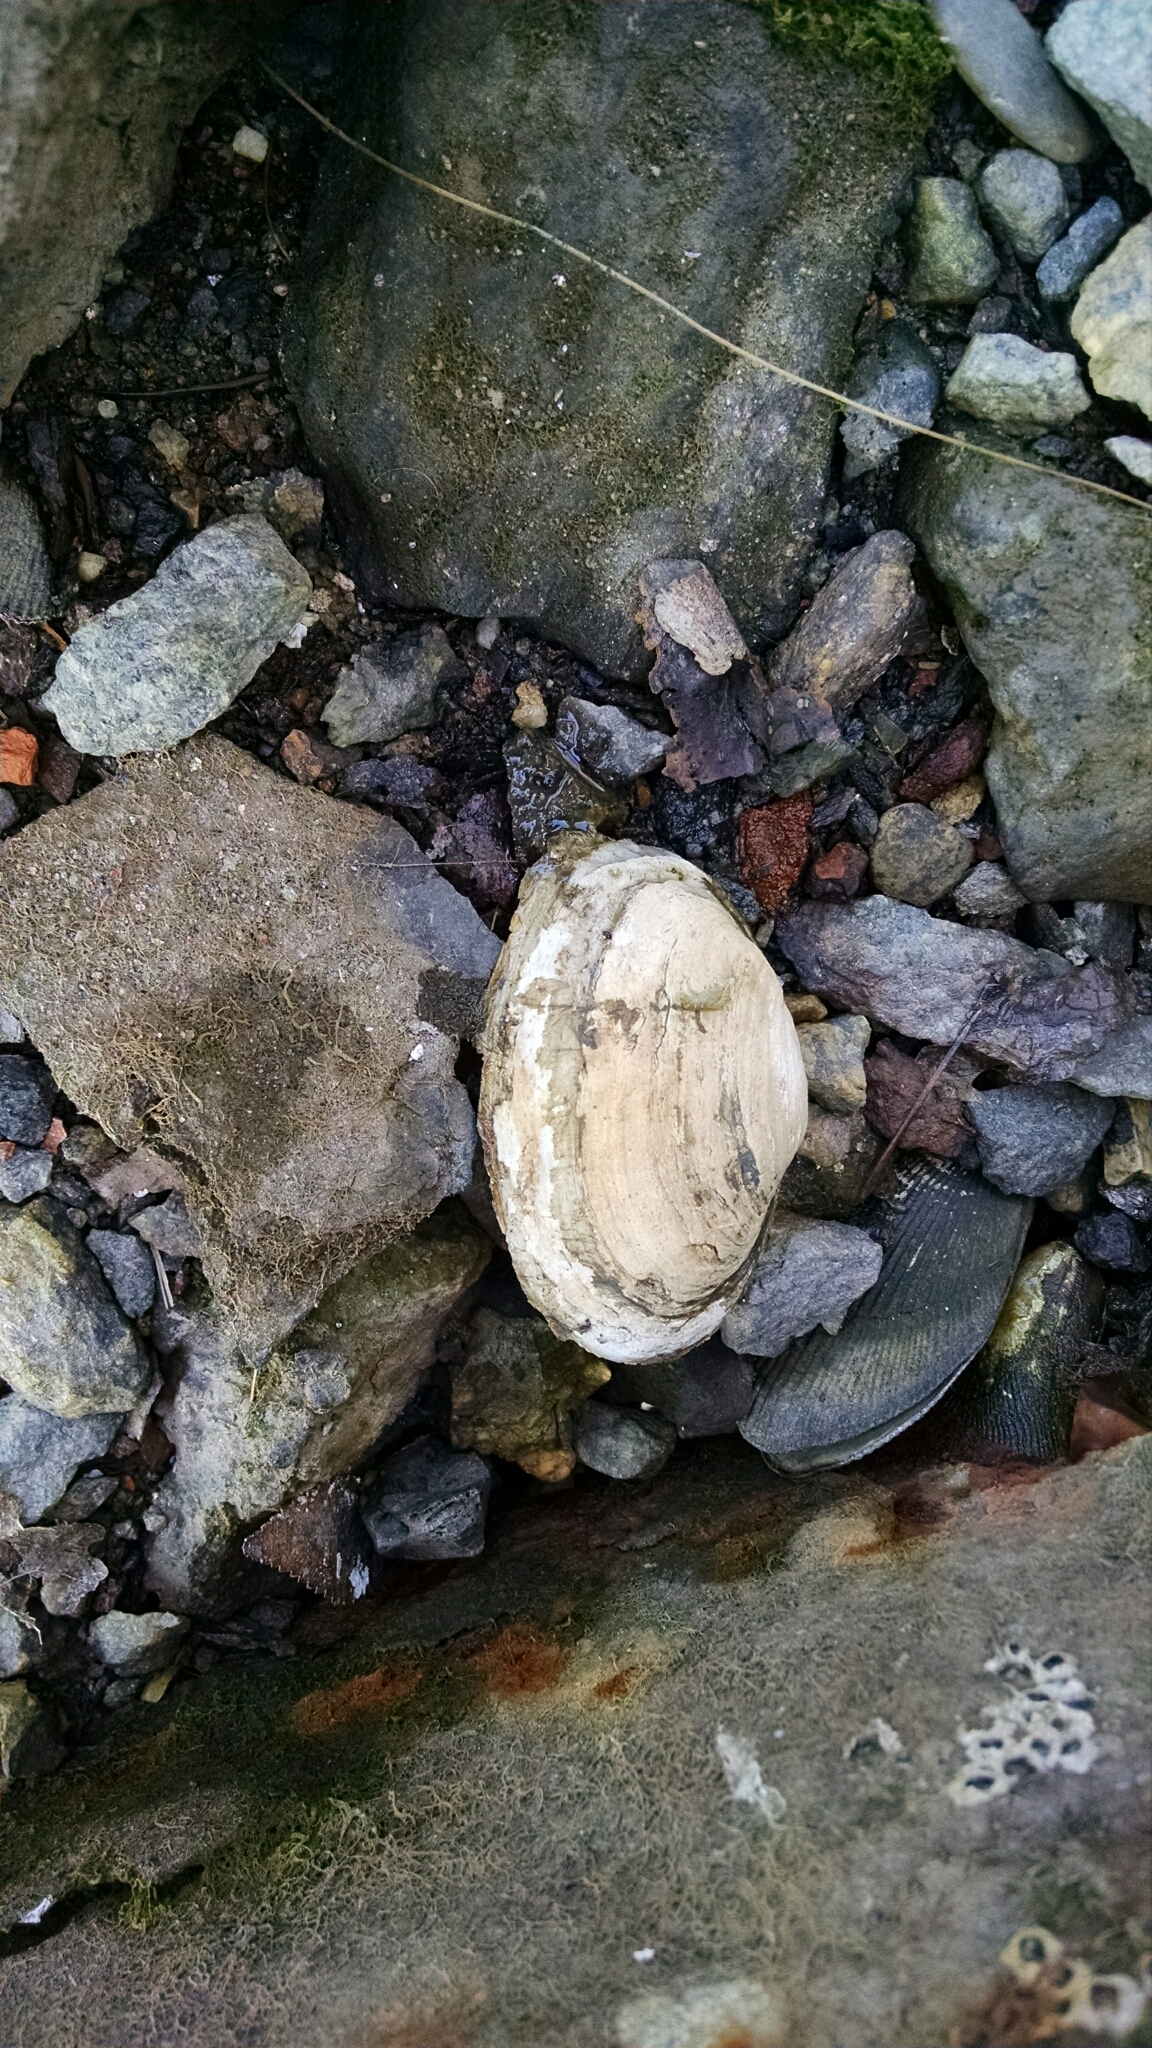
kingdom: Animalia
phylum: Mollusca
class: Bivalvia
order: Myida
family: Myidae
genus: Mya
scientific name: Mya arenaria
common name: Soft-shelled clam
